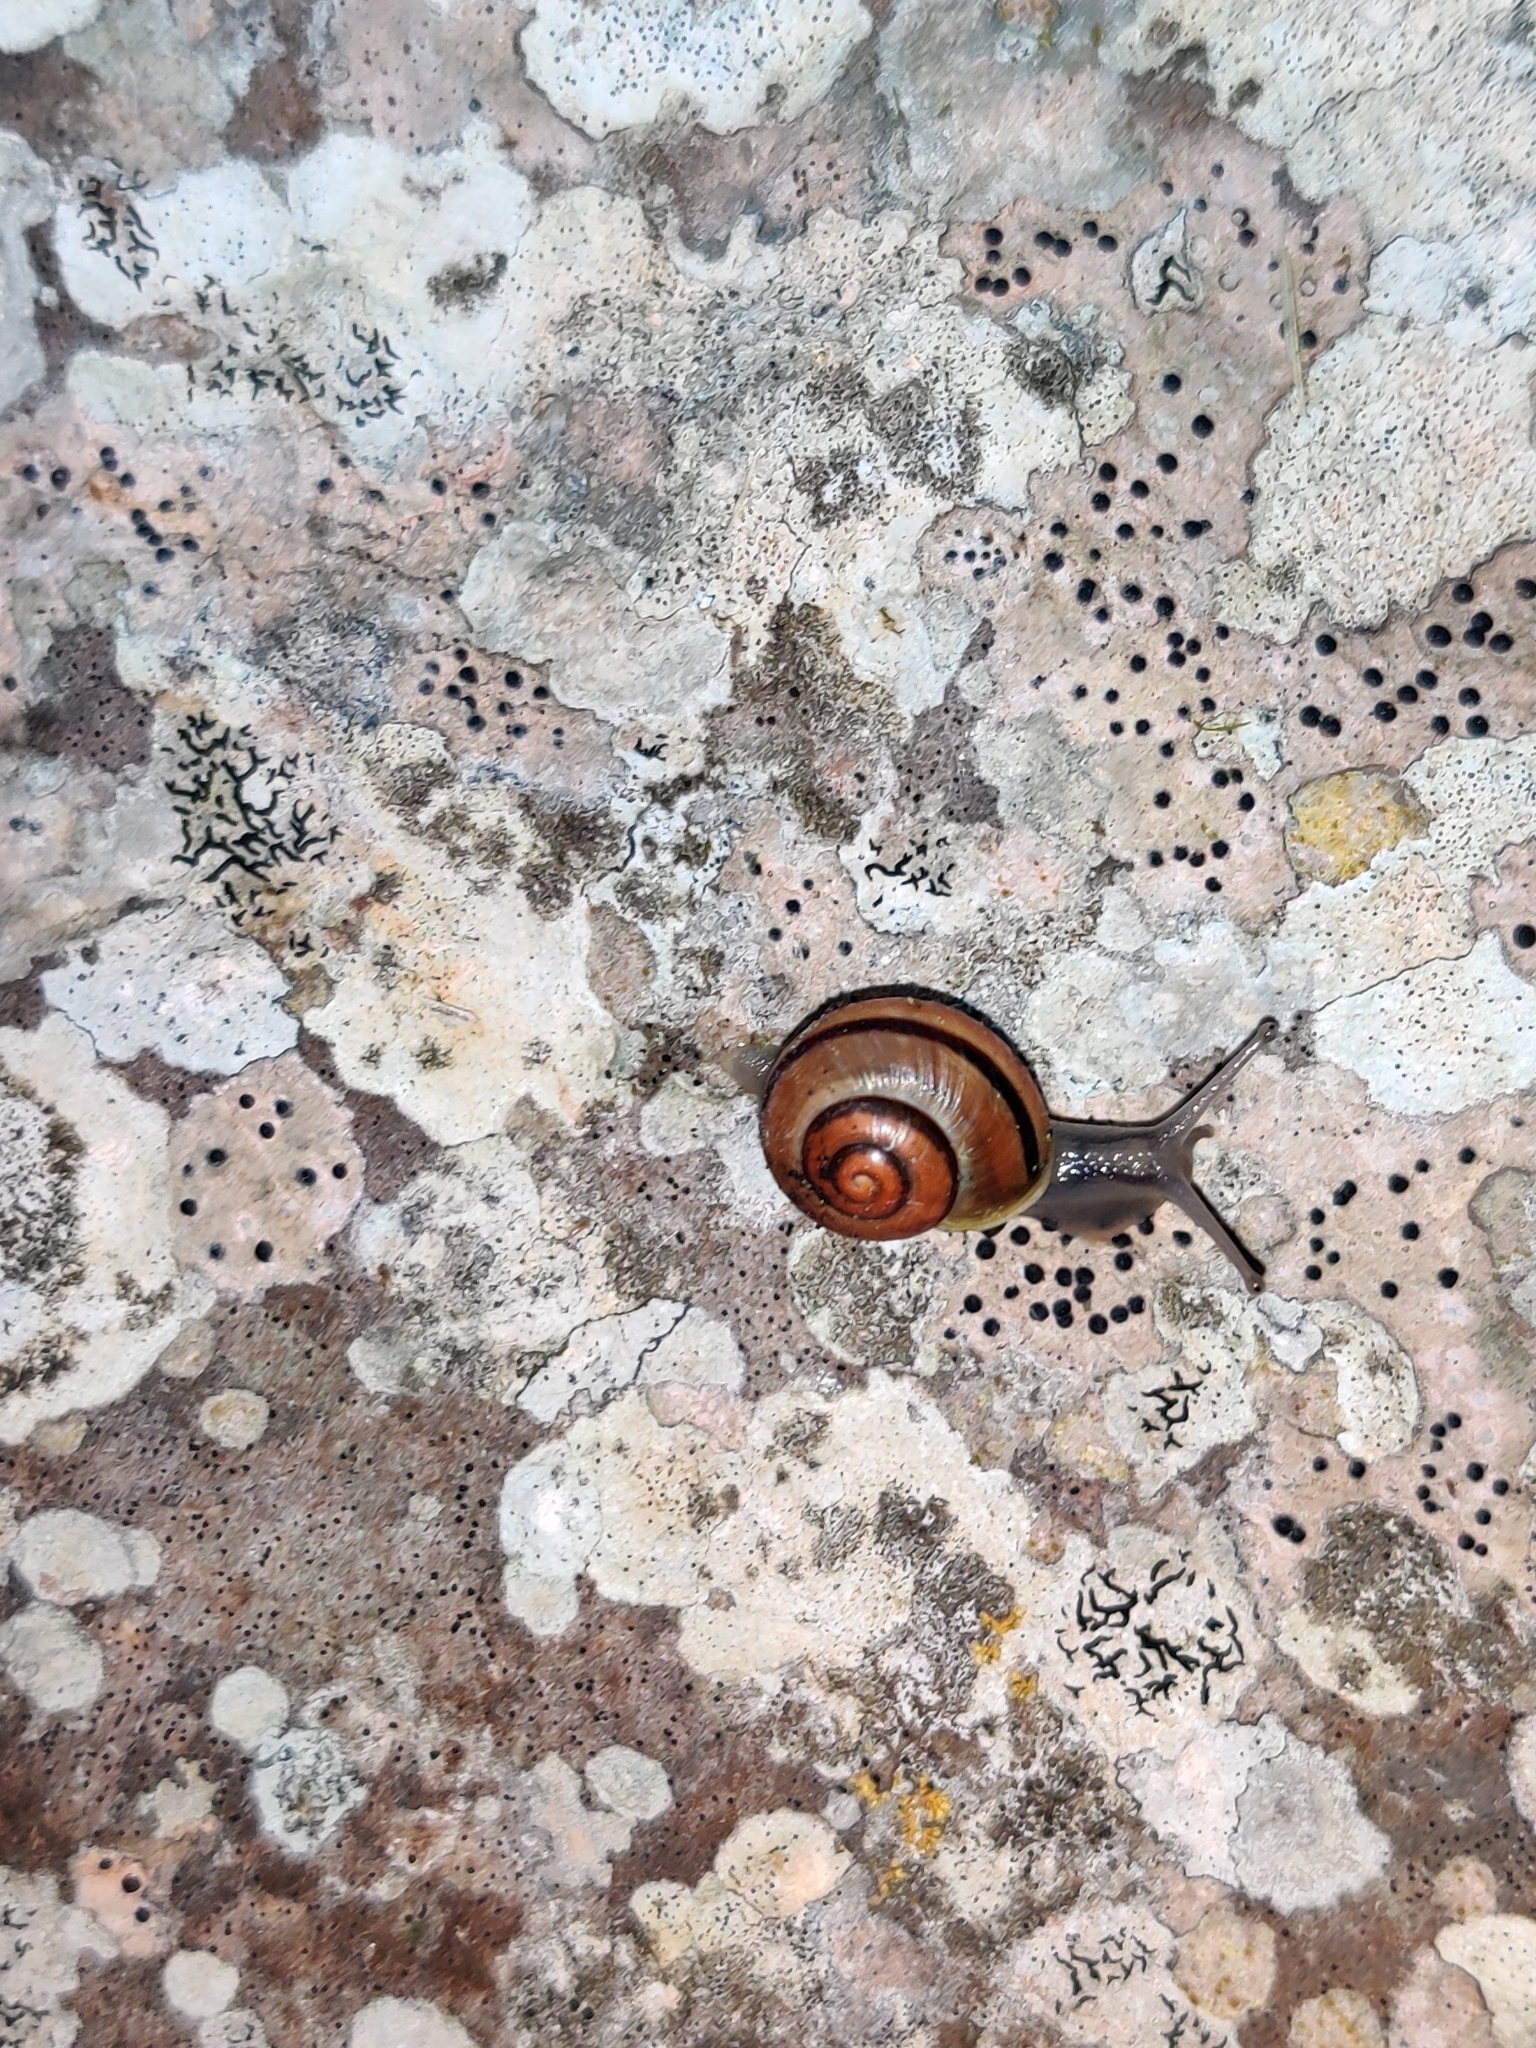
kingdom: Animalia
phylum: Mollusca
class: Gastropoda
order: Stylommatophora
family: Helicidae
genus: Cepaea
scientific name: Cepaea nemoralis
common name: Grovesnail
